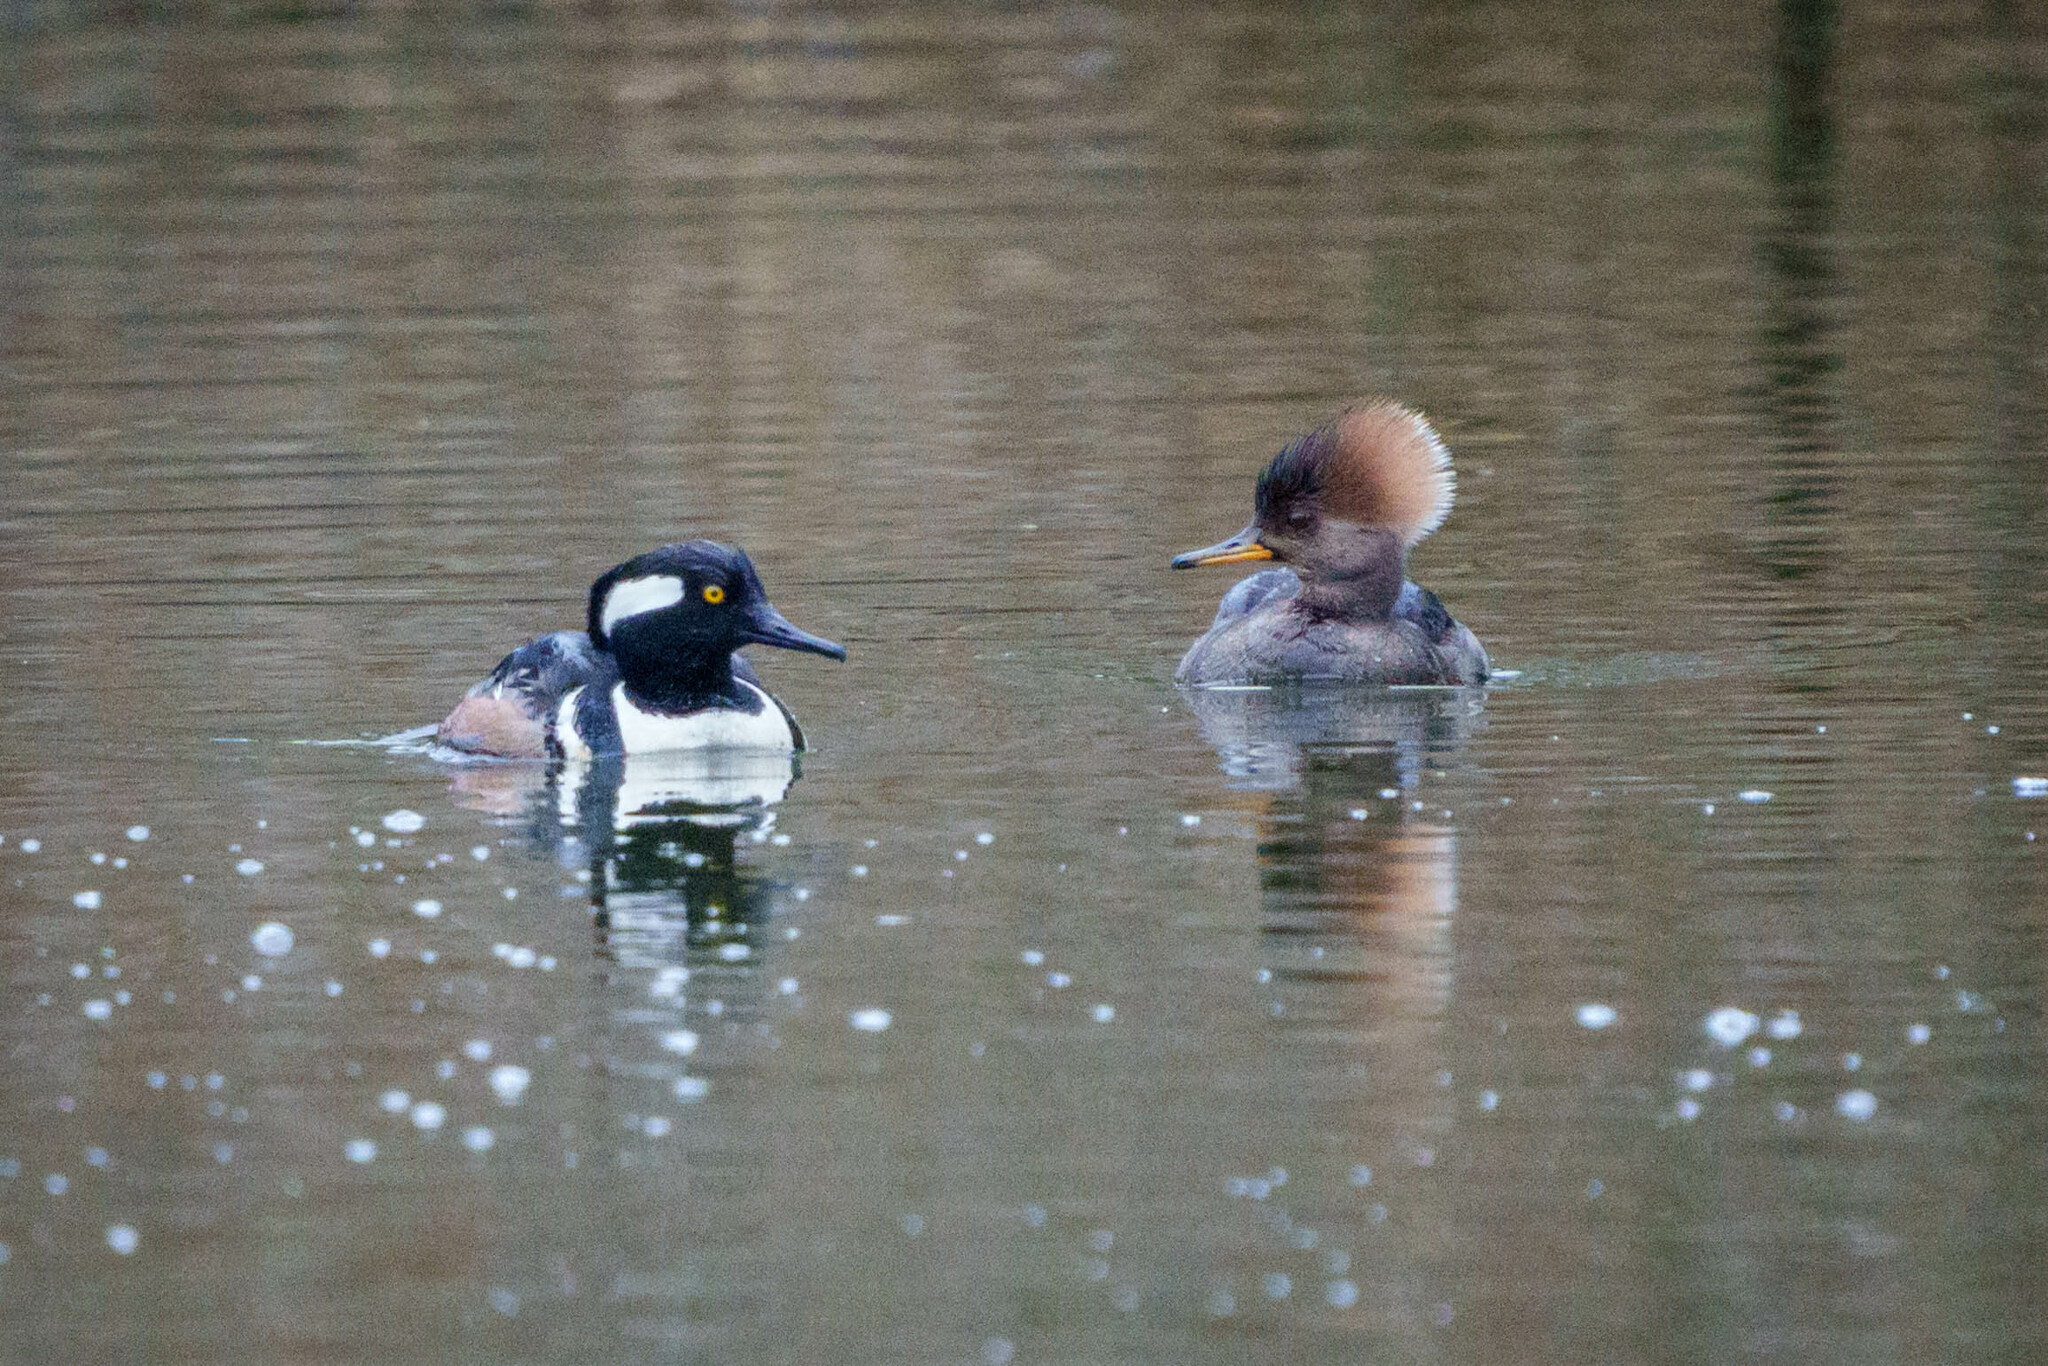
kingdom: Animalia
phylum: Chordata
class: Aves
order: Anseriformes
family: Anatidae
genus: Lophodytes
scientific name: Lophodytes cucullatus
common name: Hooded merganser
